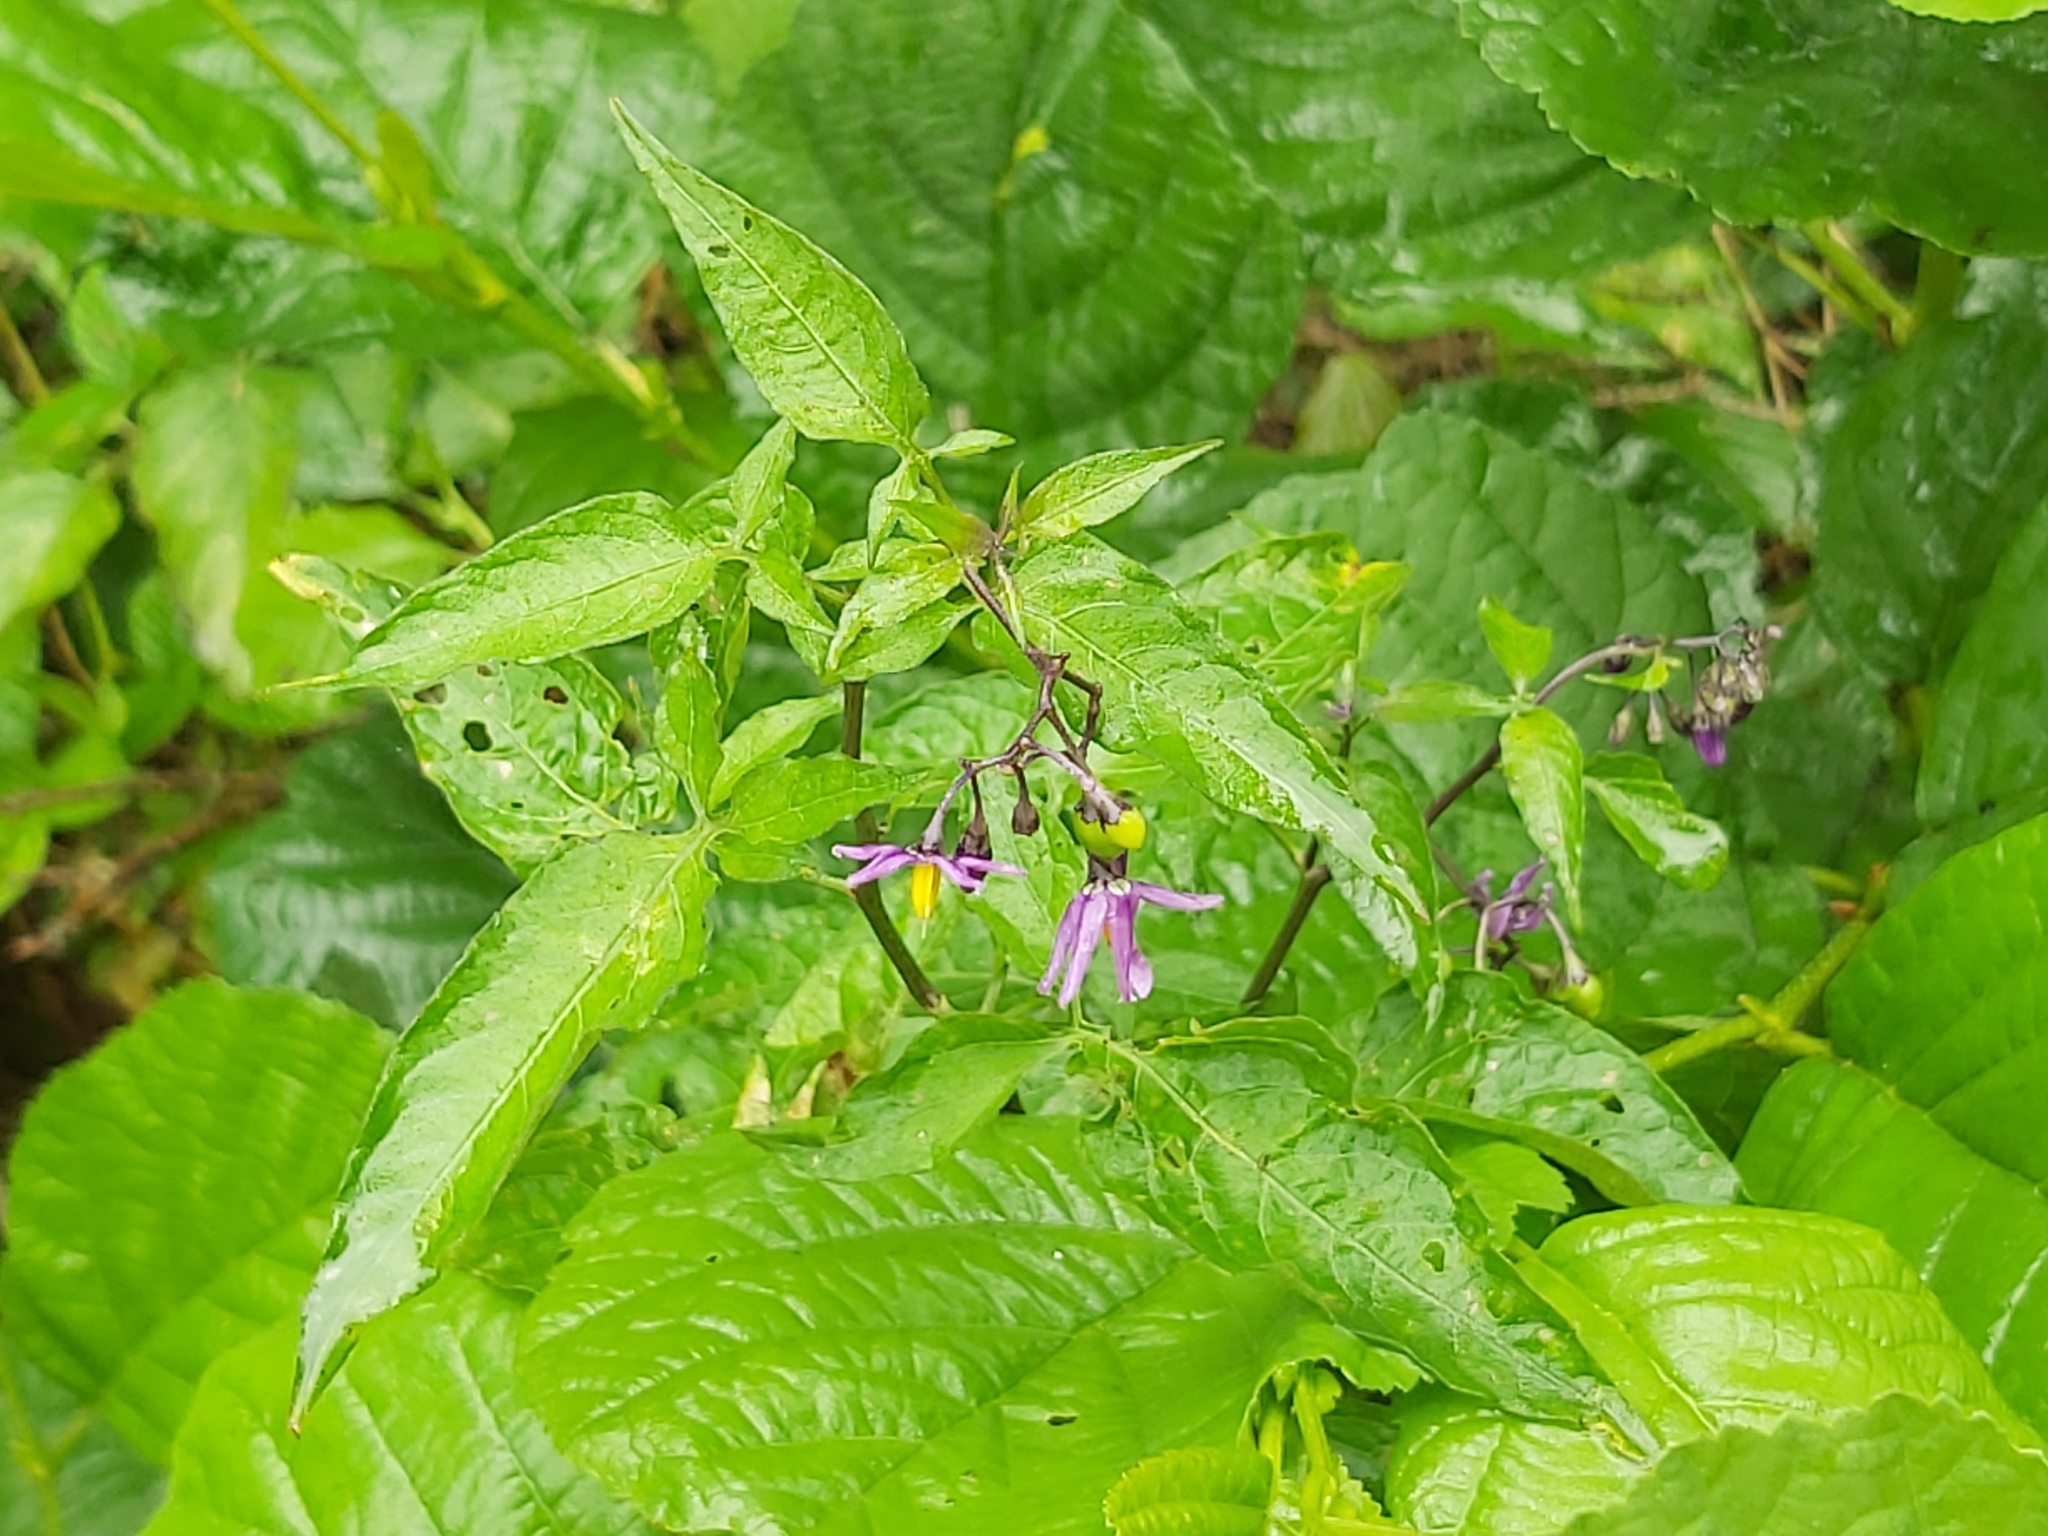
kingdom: Plantae
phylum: Tracheophyta
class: Magnoliopsida
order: Solanales
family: Solanaceae
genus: Solanum
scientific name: Solanum dulcamara
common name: Climbing nightshade
